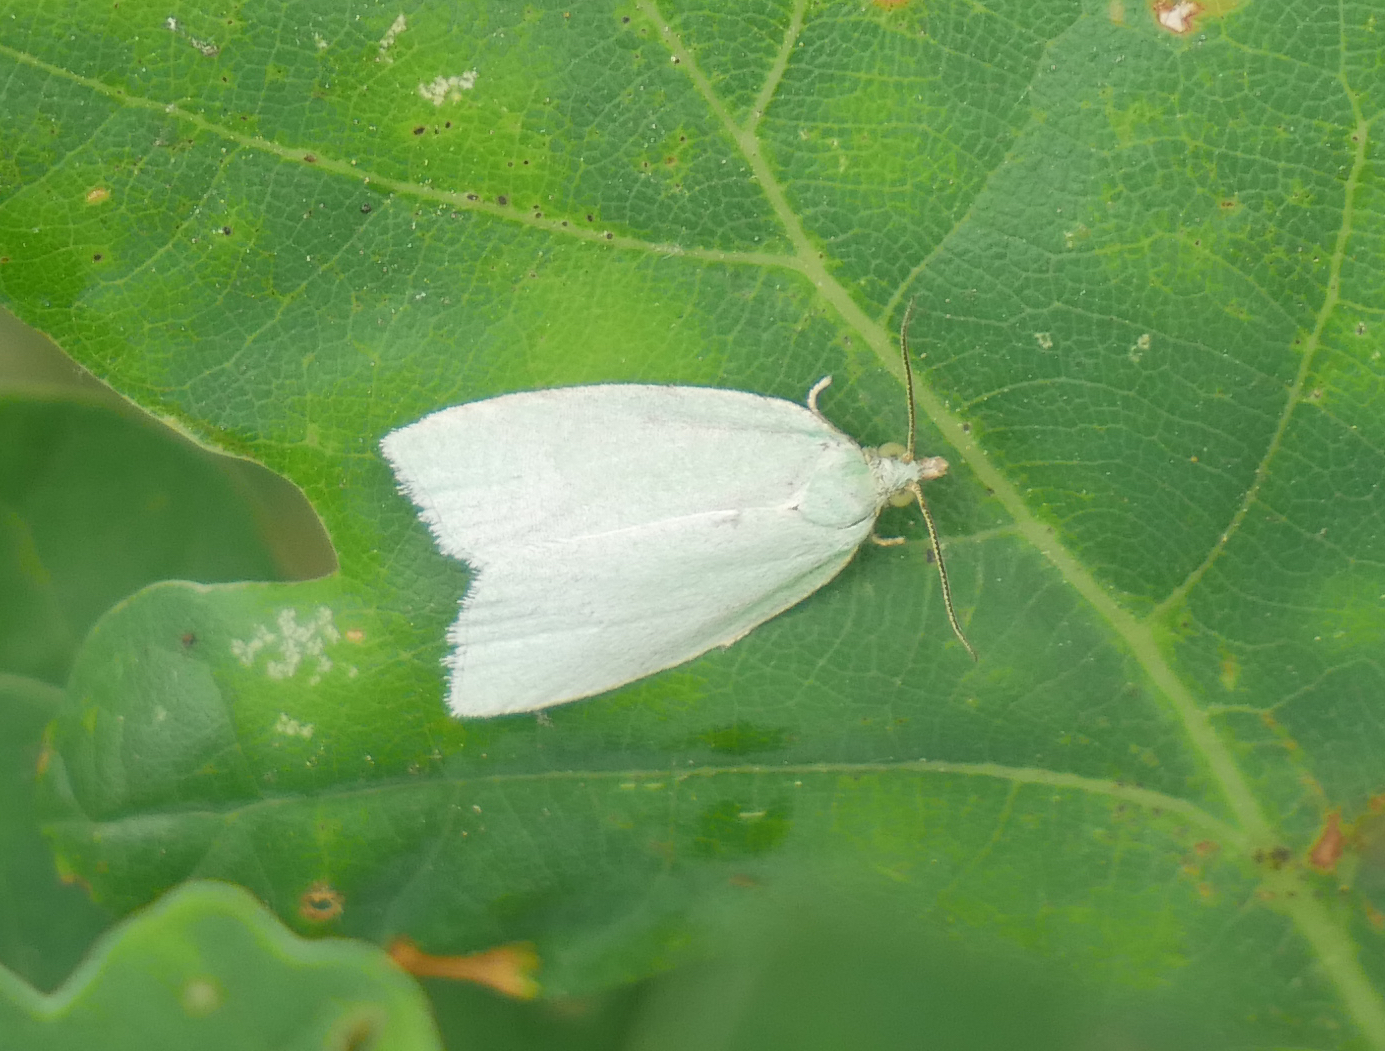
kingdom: Animalia
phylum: Arthropoda
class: Insecta
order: Lepidoptera
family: Tortricidae
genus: Tortrix
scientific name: Tortrix viridana
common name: Green oak tortrix
